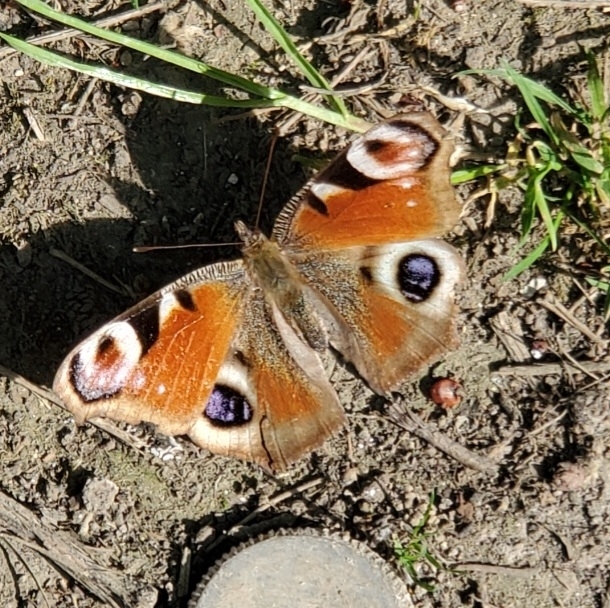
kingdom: Animalia
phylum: Arthropoda
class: Insecta
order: Lepidoptera
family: Nymphalidae
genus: Aglais
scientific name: Aglais io
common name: Peacock
